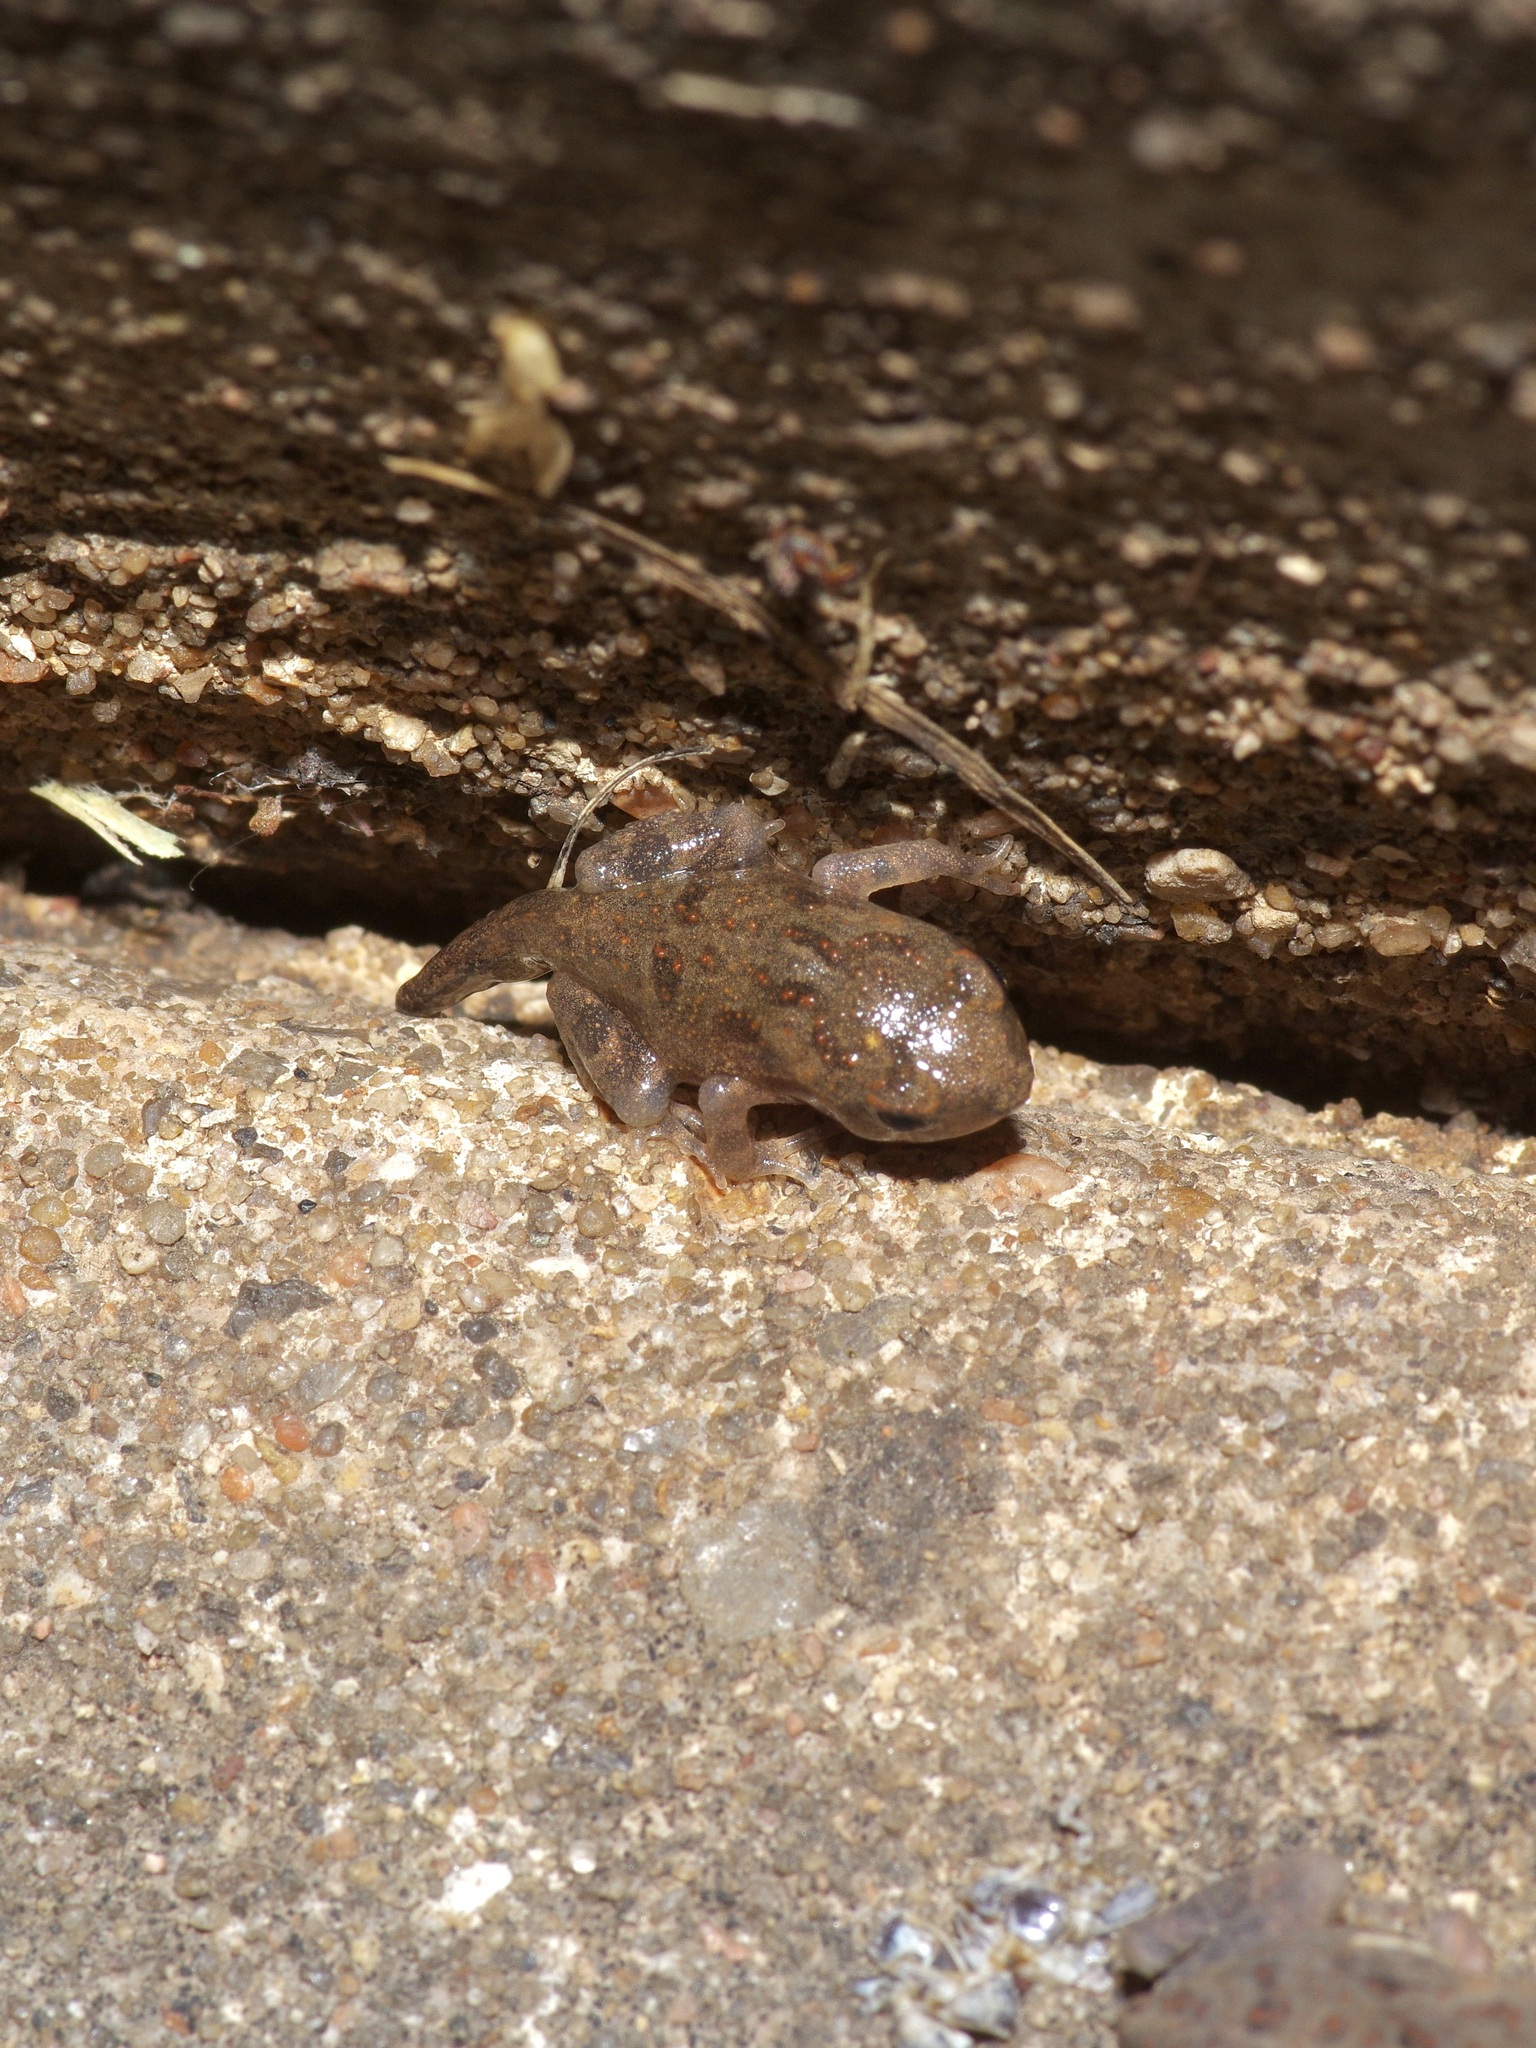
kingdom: Animalia
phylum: Chordata
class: Amphibia
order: Anura
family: Bufonidae
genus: Incilius
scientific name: Incilius nebulifer
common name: Gulf coast toad
